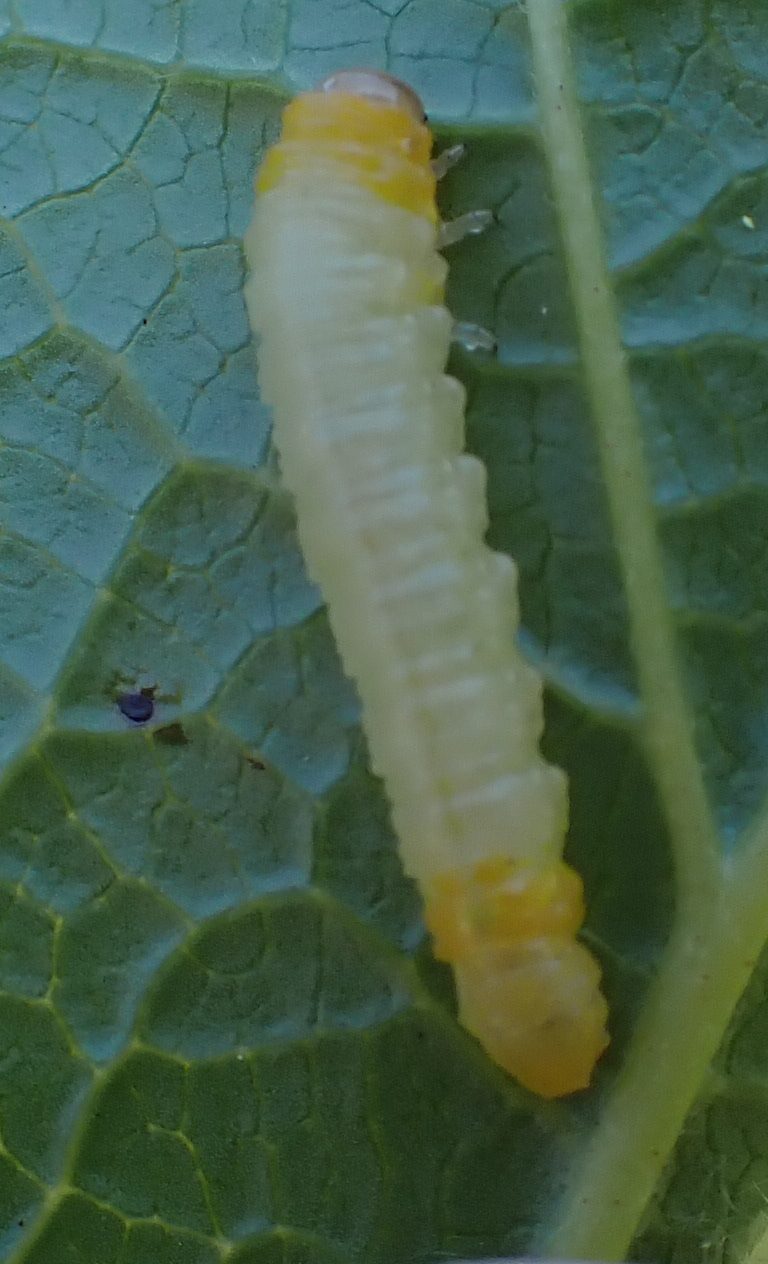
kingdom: Animalia
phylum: Arthropoda
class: Insecta
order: Hymenoptera
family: Tenthredinidae
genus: Nematus
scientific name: Nematus ribesii
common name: Imported currantworm
